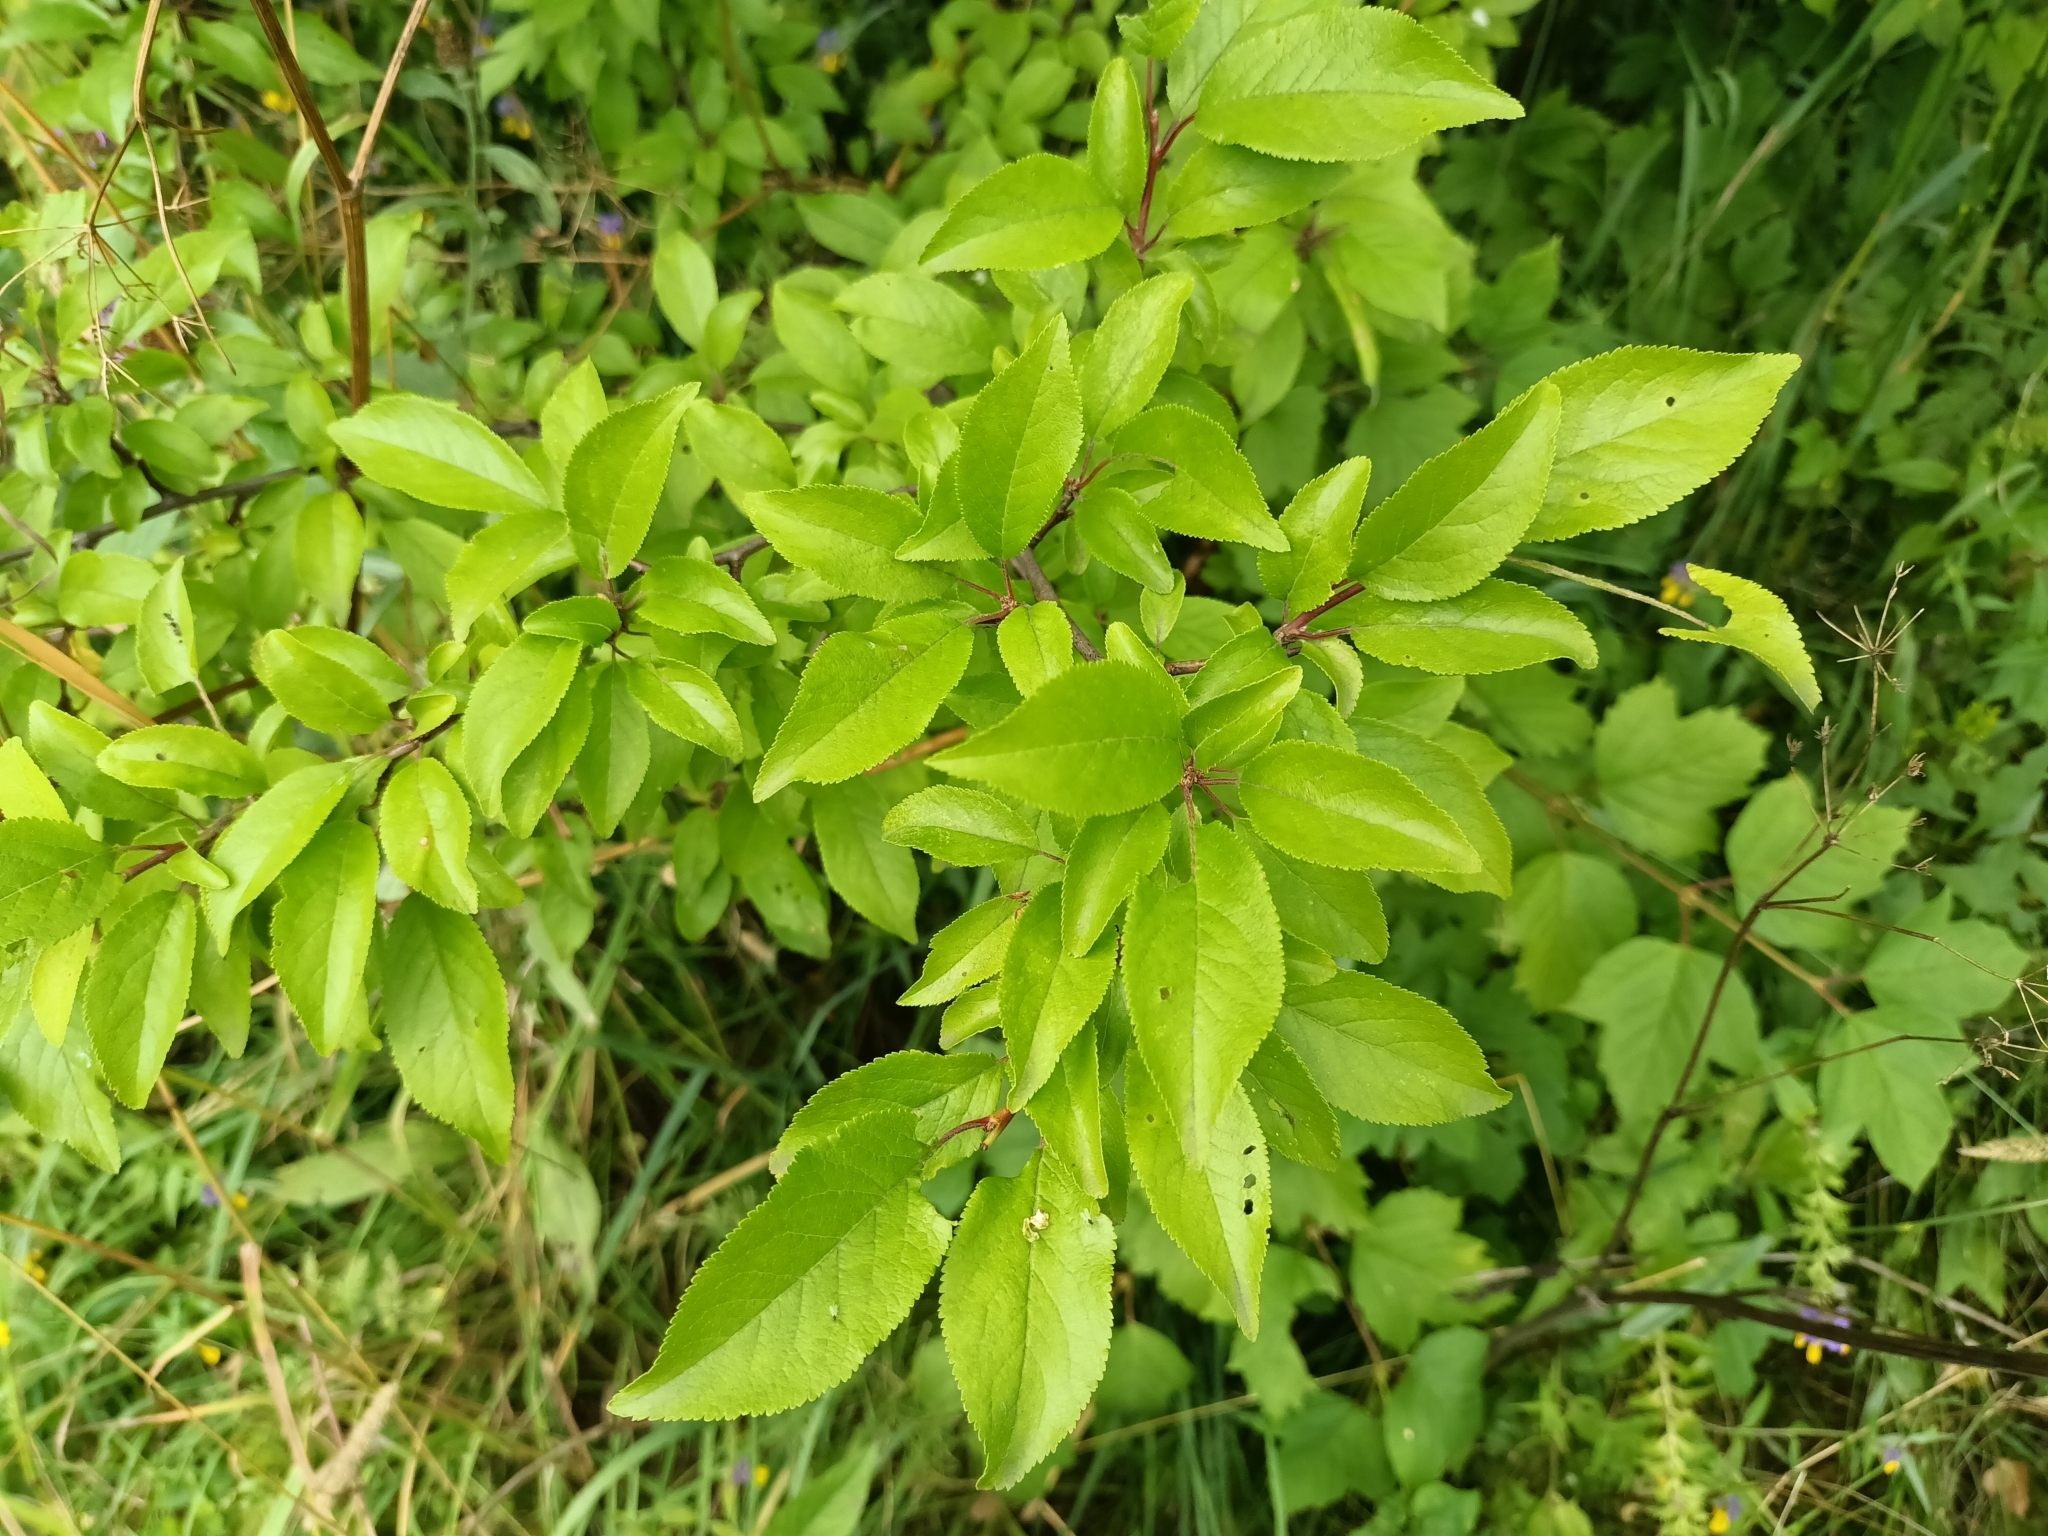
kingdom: Plantae
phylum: Tracheophyta
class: Magnoliopsida
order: Rosales
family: Rosaceae
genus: Prunus
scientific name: Prunus cerasifera
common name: Cherry plum
